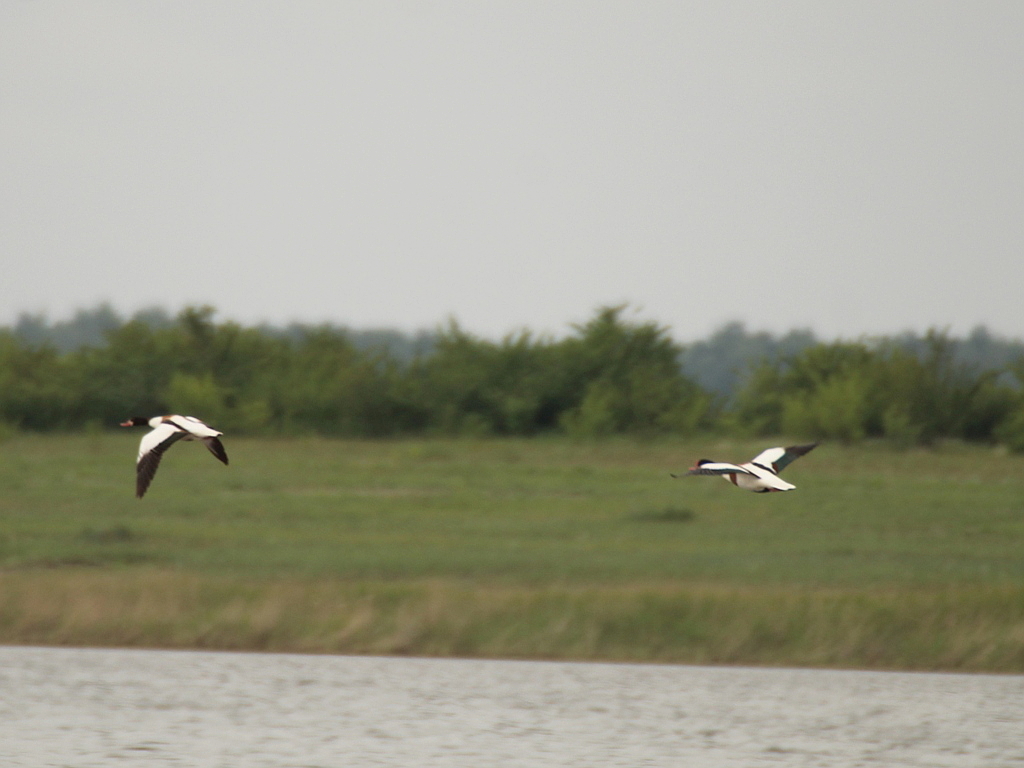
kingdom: Animalia
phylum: Chordata
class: Aves
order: Anseriformes
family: Anatidae
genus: Tadorna
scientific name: Tadorna tadorna
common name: Common shelduck
